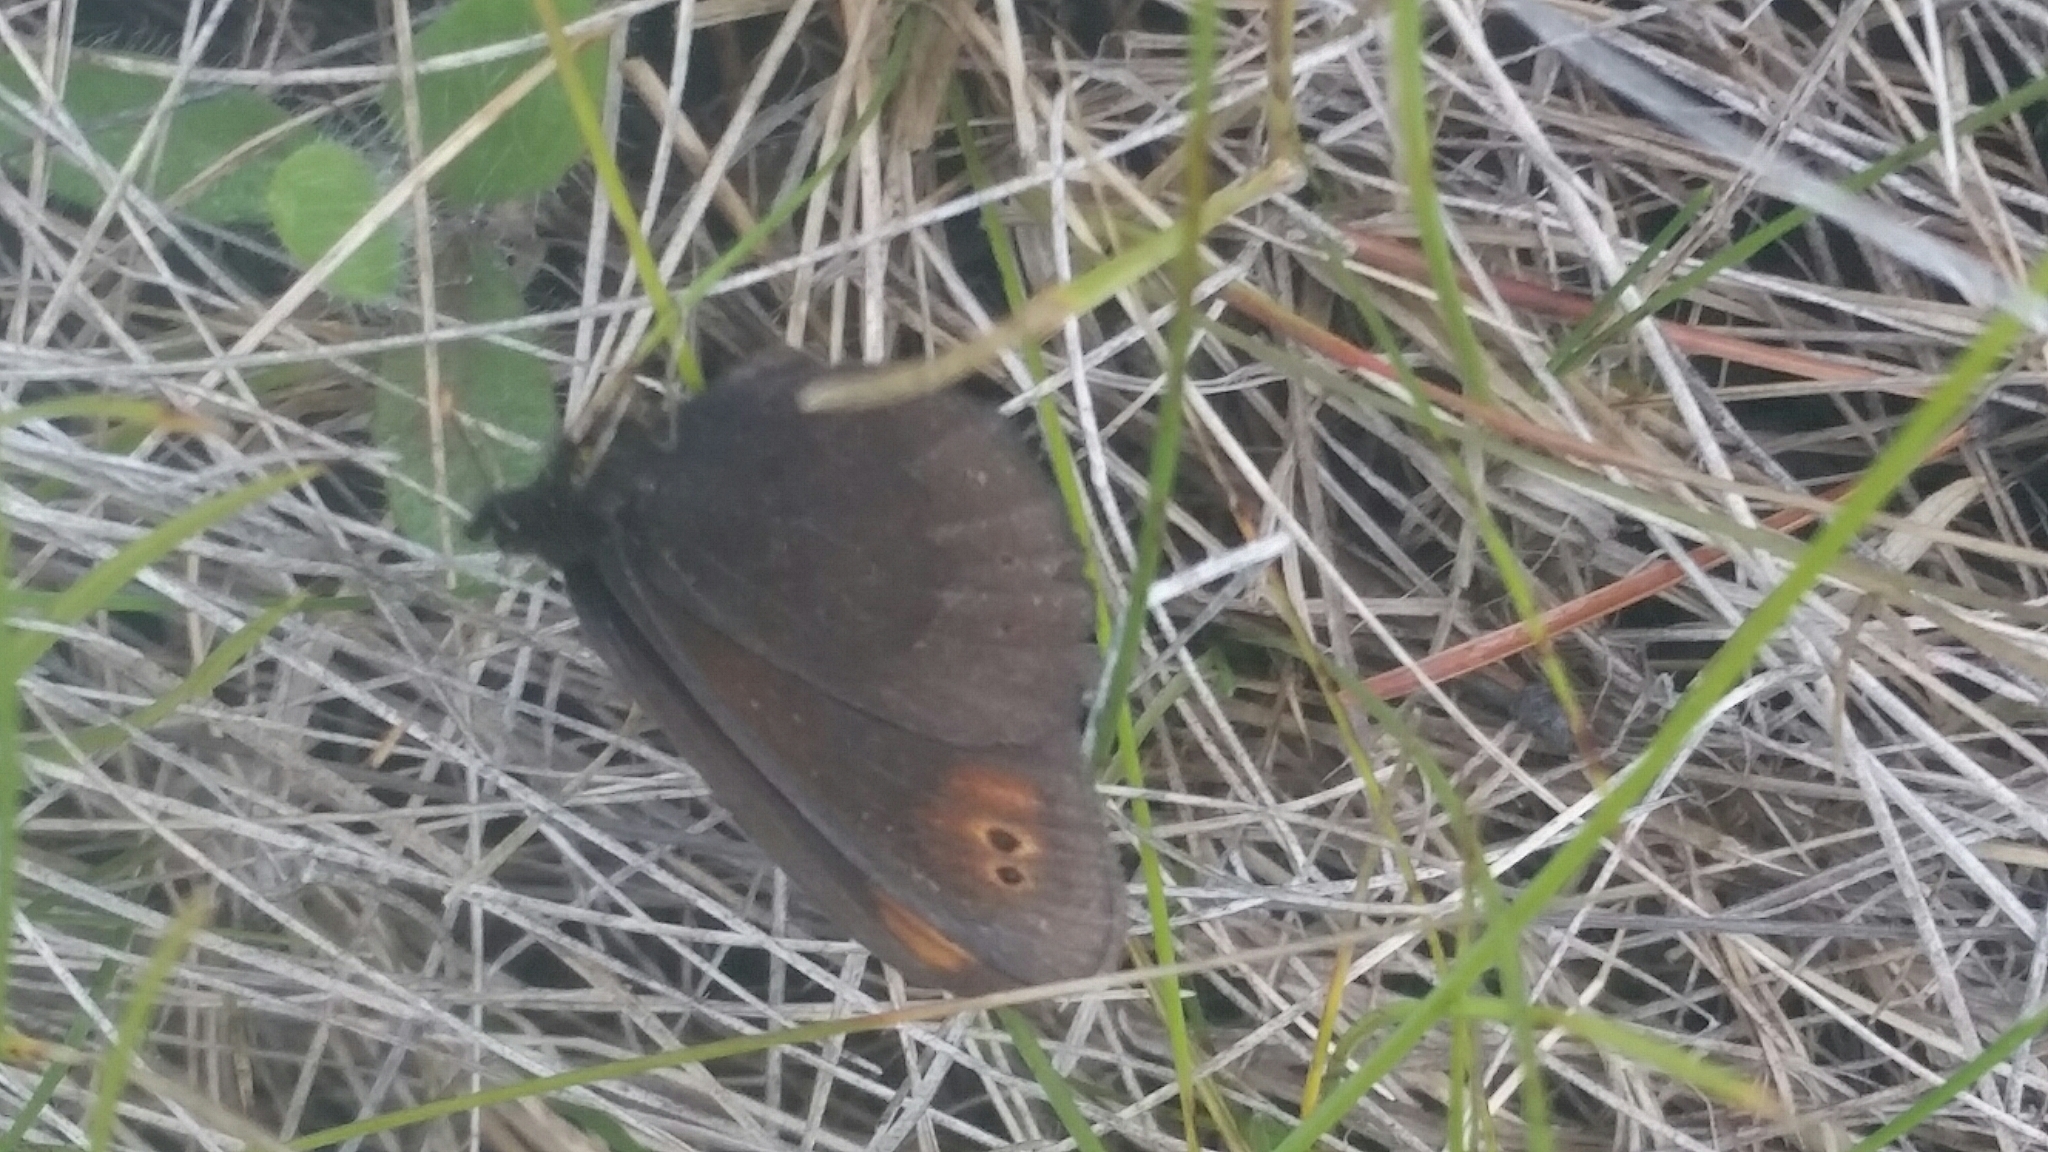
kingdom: Animalia
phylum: Arthropoda
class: Insecta
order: Lepidoptera
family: Nymphalidae
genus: Erebia
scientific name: Erebia epipsodea
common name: Common alpine
